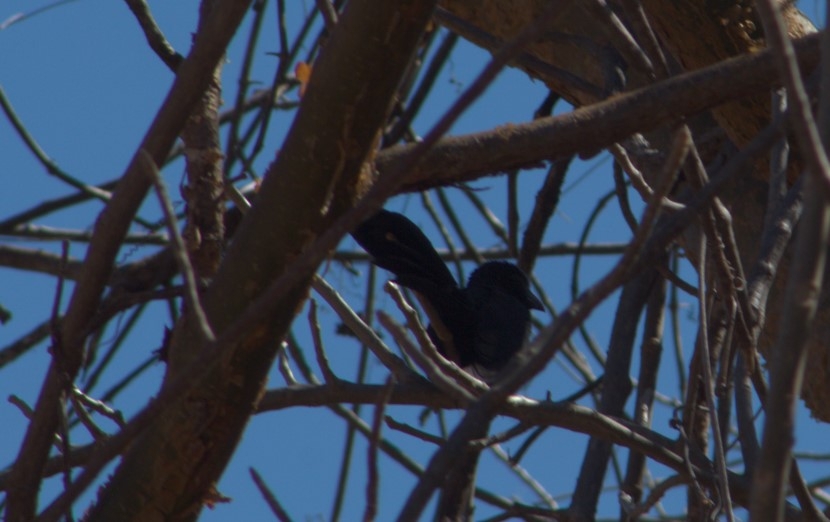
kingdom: Animalia
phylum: Chordata
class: Aves
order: Cuculiformes
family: Cuculidae
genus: Crotophaga
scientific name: Crotophaga sulcirostris
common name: Groove-billed ani
